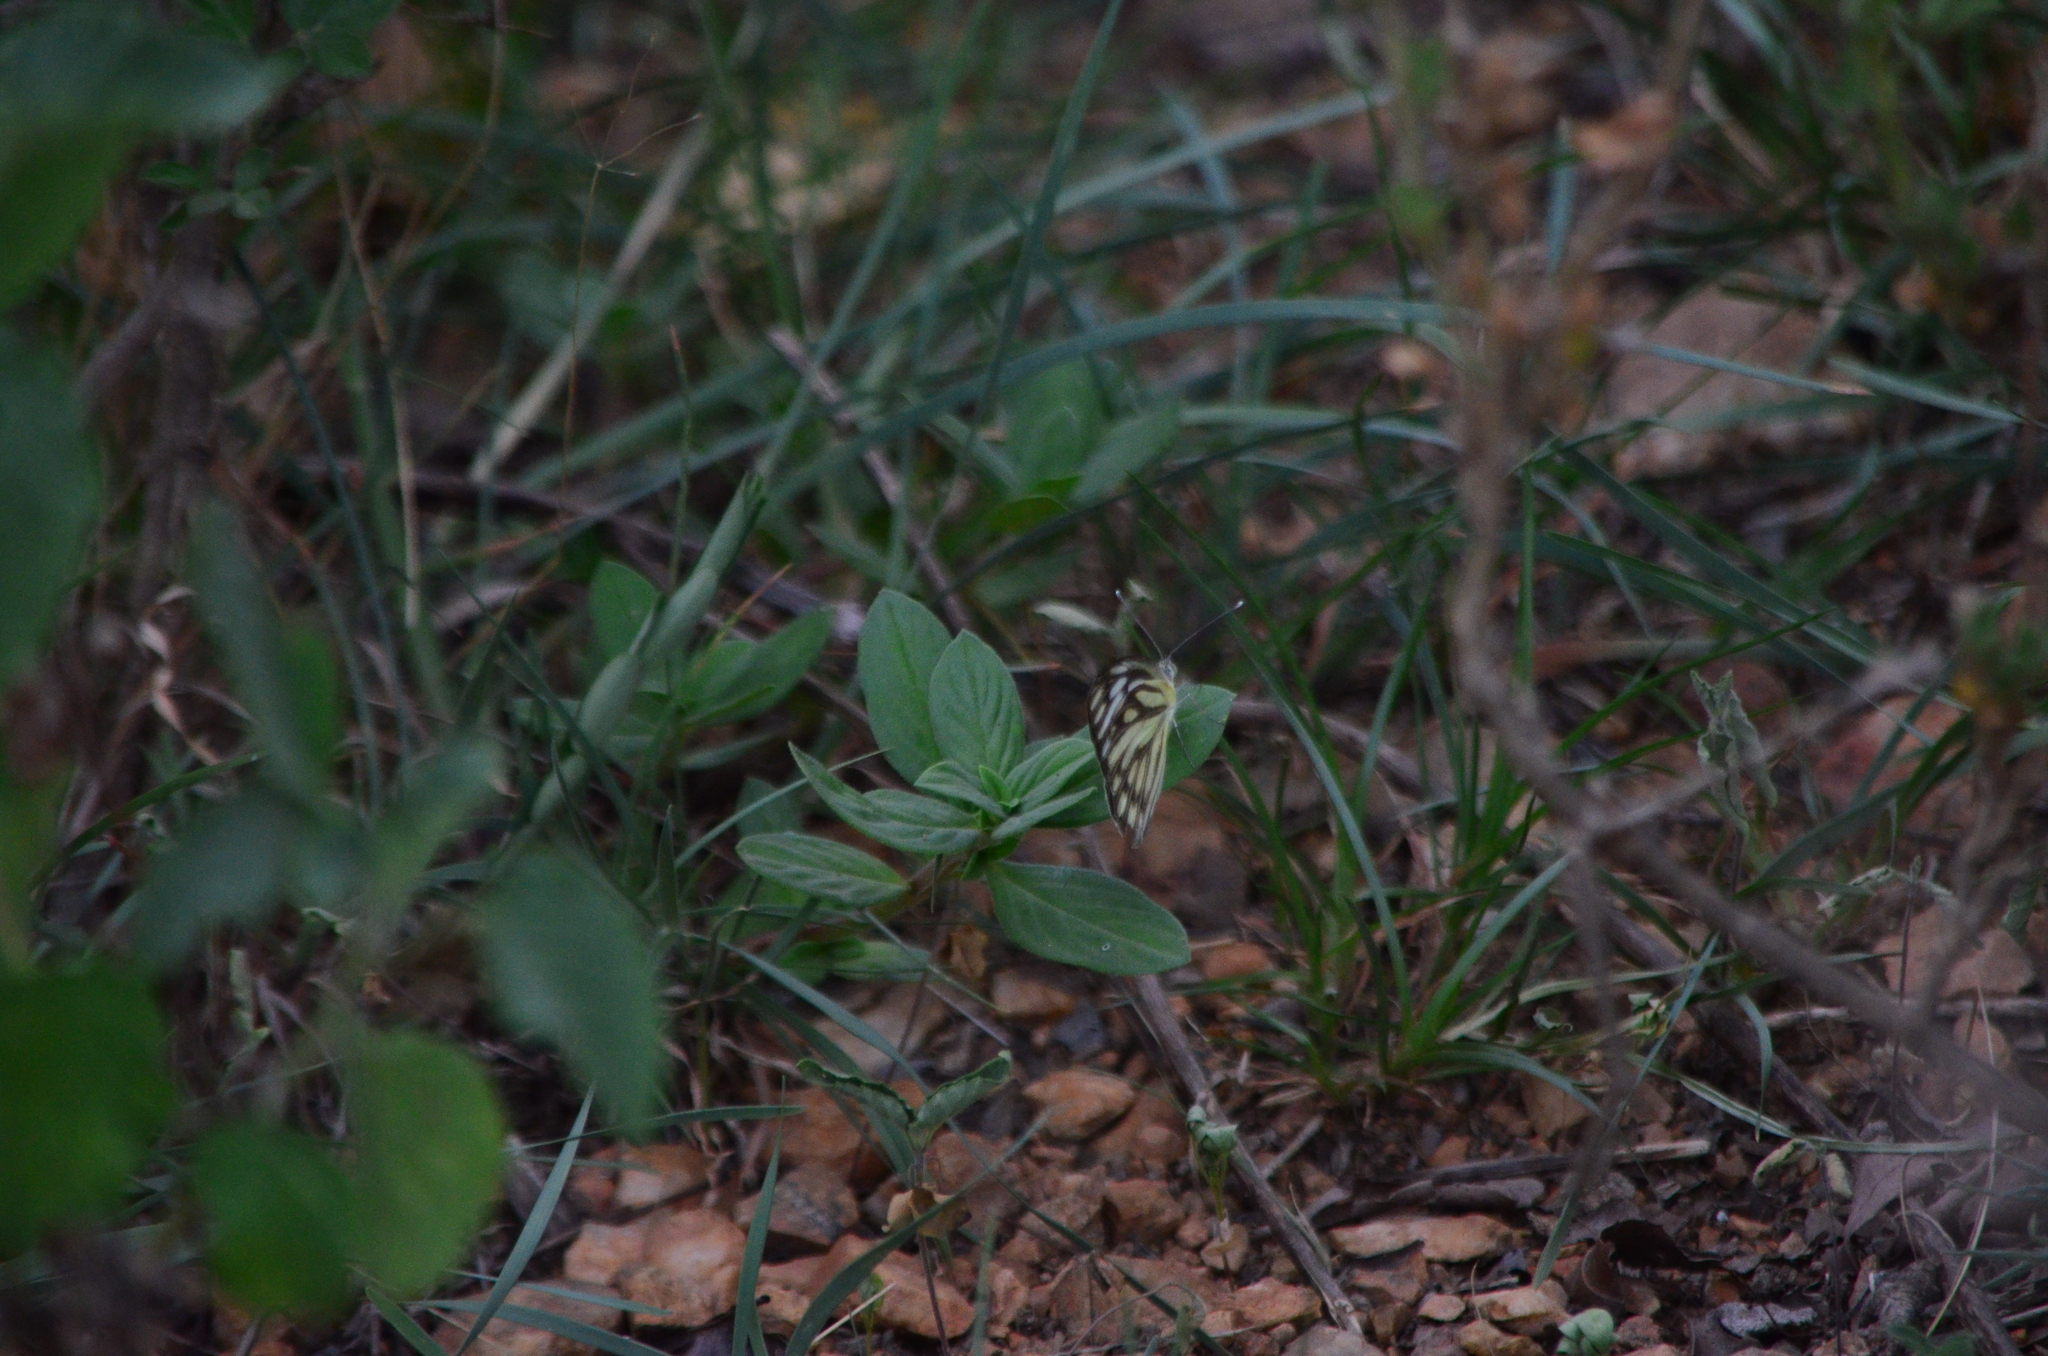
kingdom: Animalia
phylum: Arthropoda
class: Insecta
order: Lepidoptera
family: Pieridae
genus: Cepora
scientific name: Cepora nerissa
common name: Common gull
